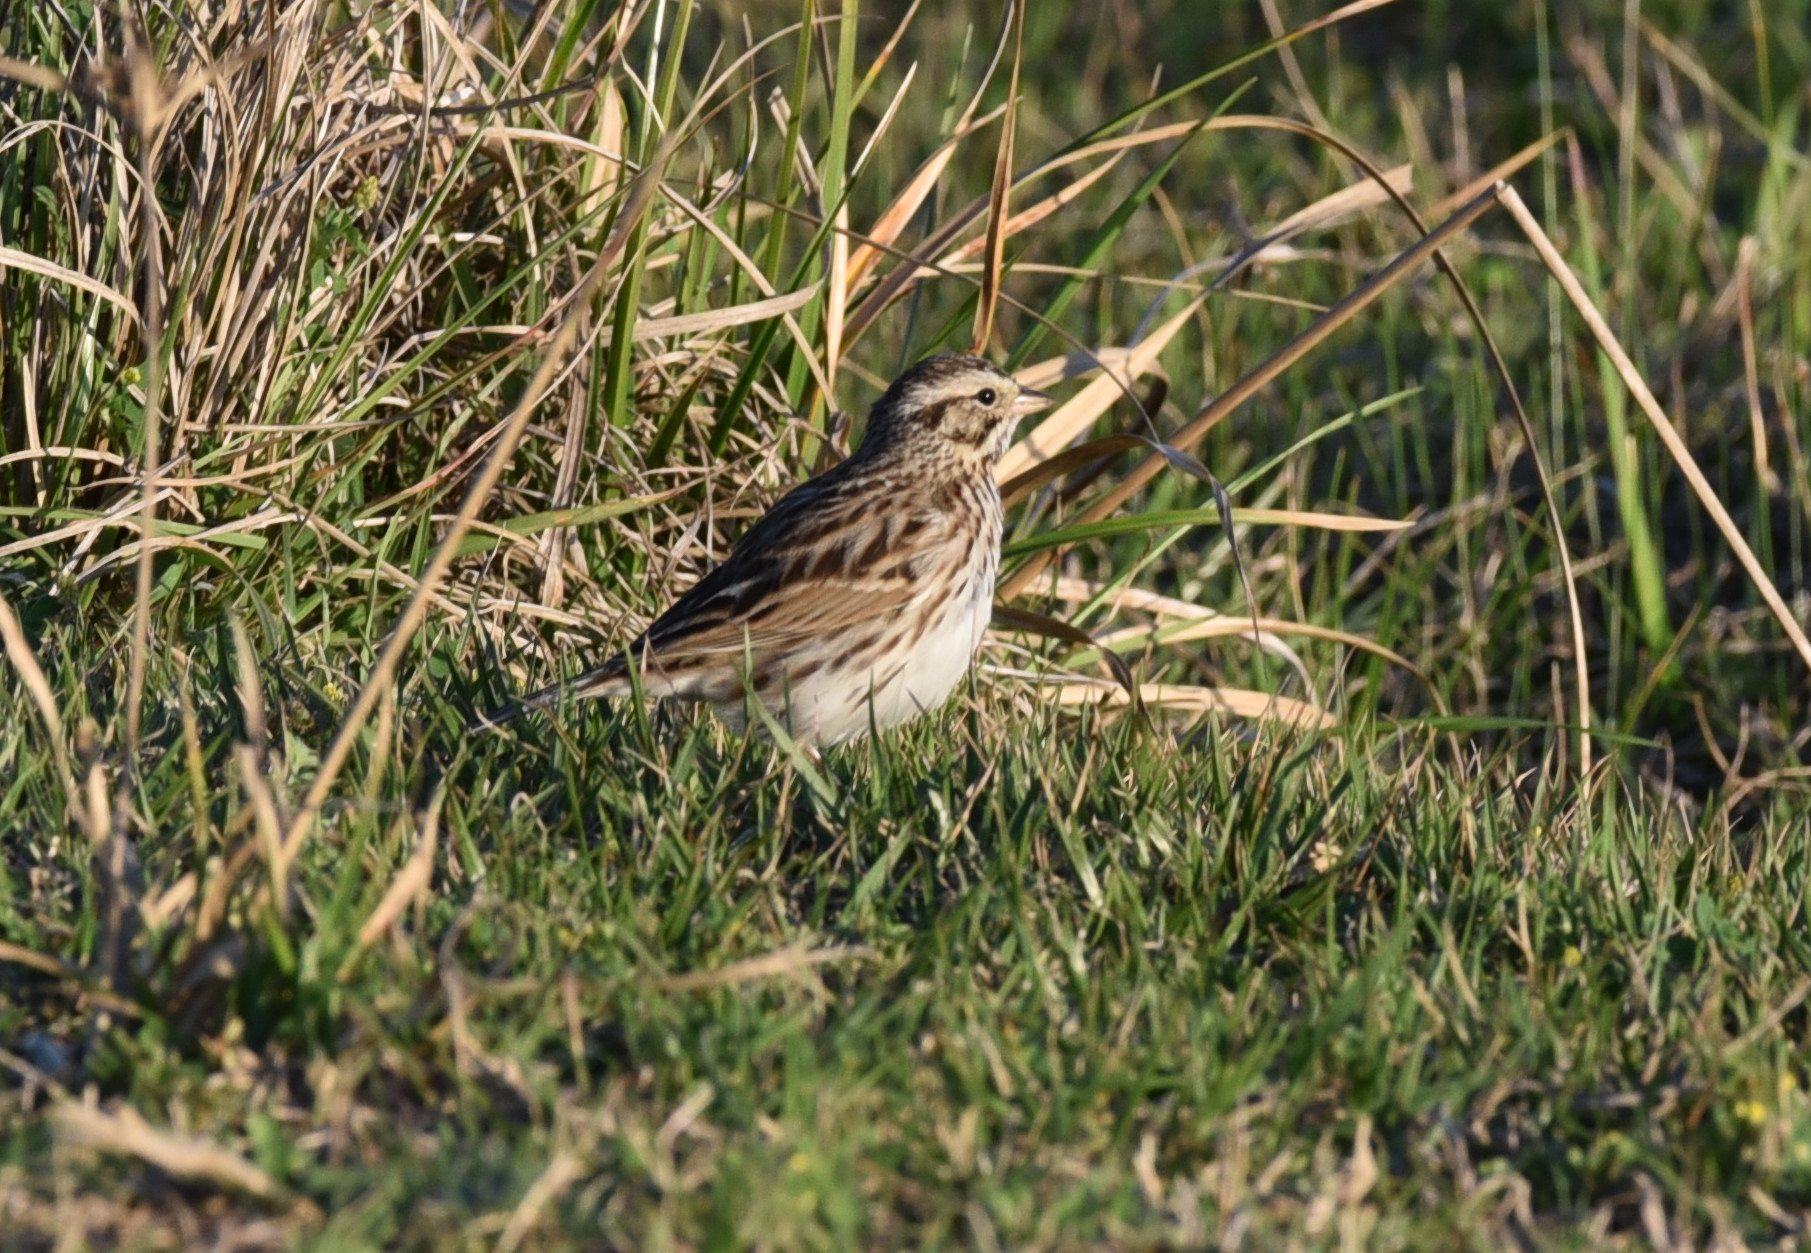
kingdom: Animalia
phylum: Chordata
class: Aves
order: Passeriformes
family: Passerellidae
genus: Passerculus
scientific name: Passerculus sandwichensis
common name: Savannah sparrow
